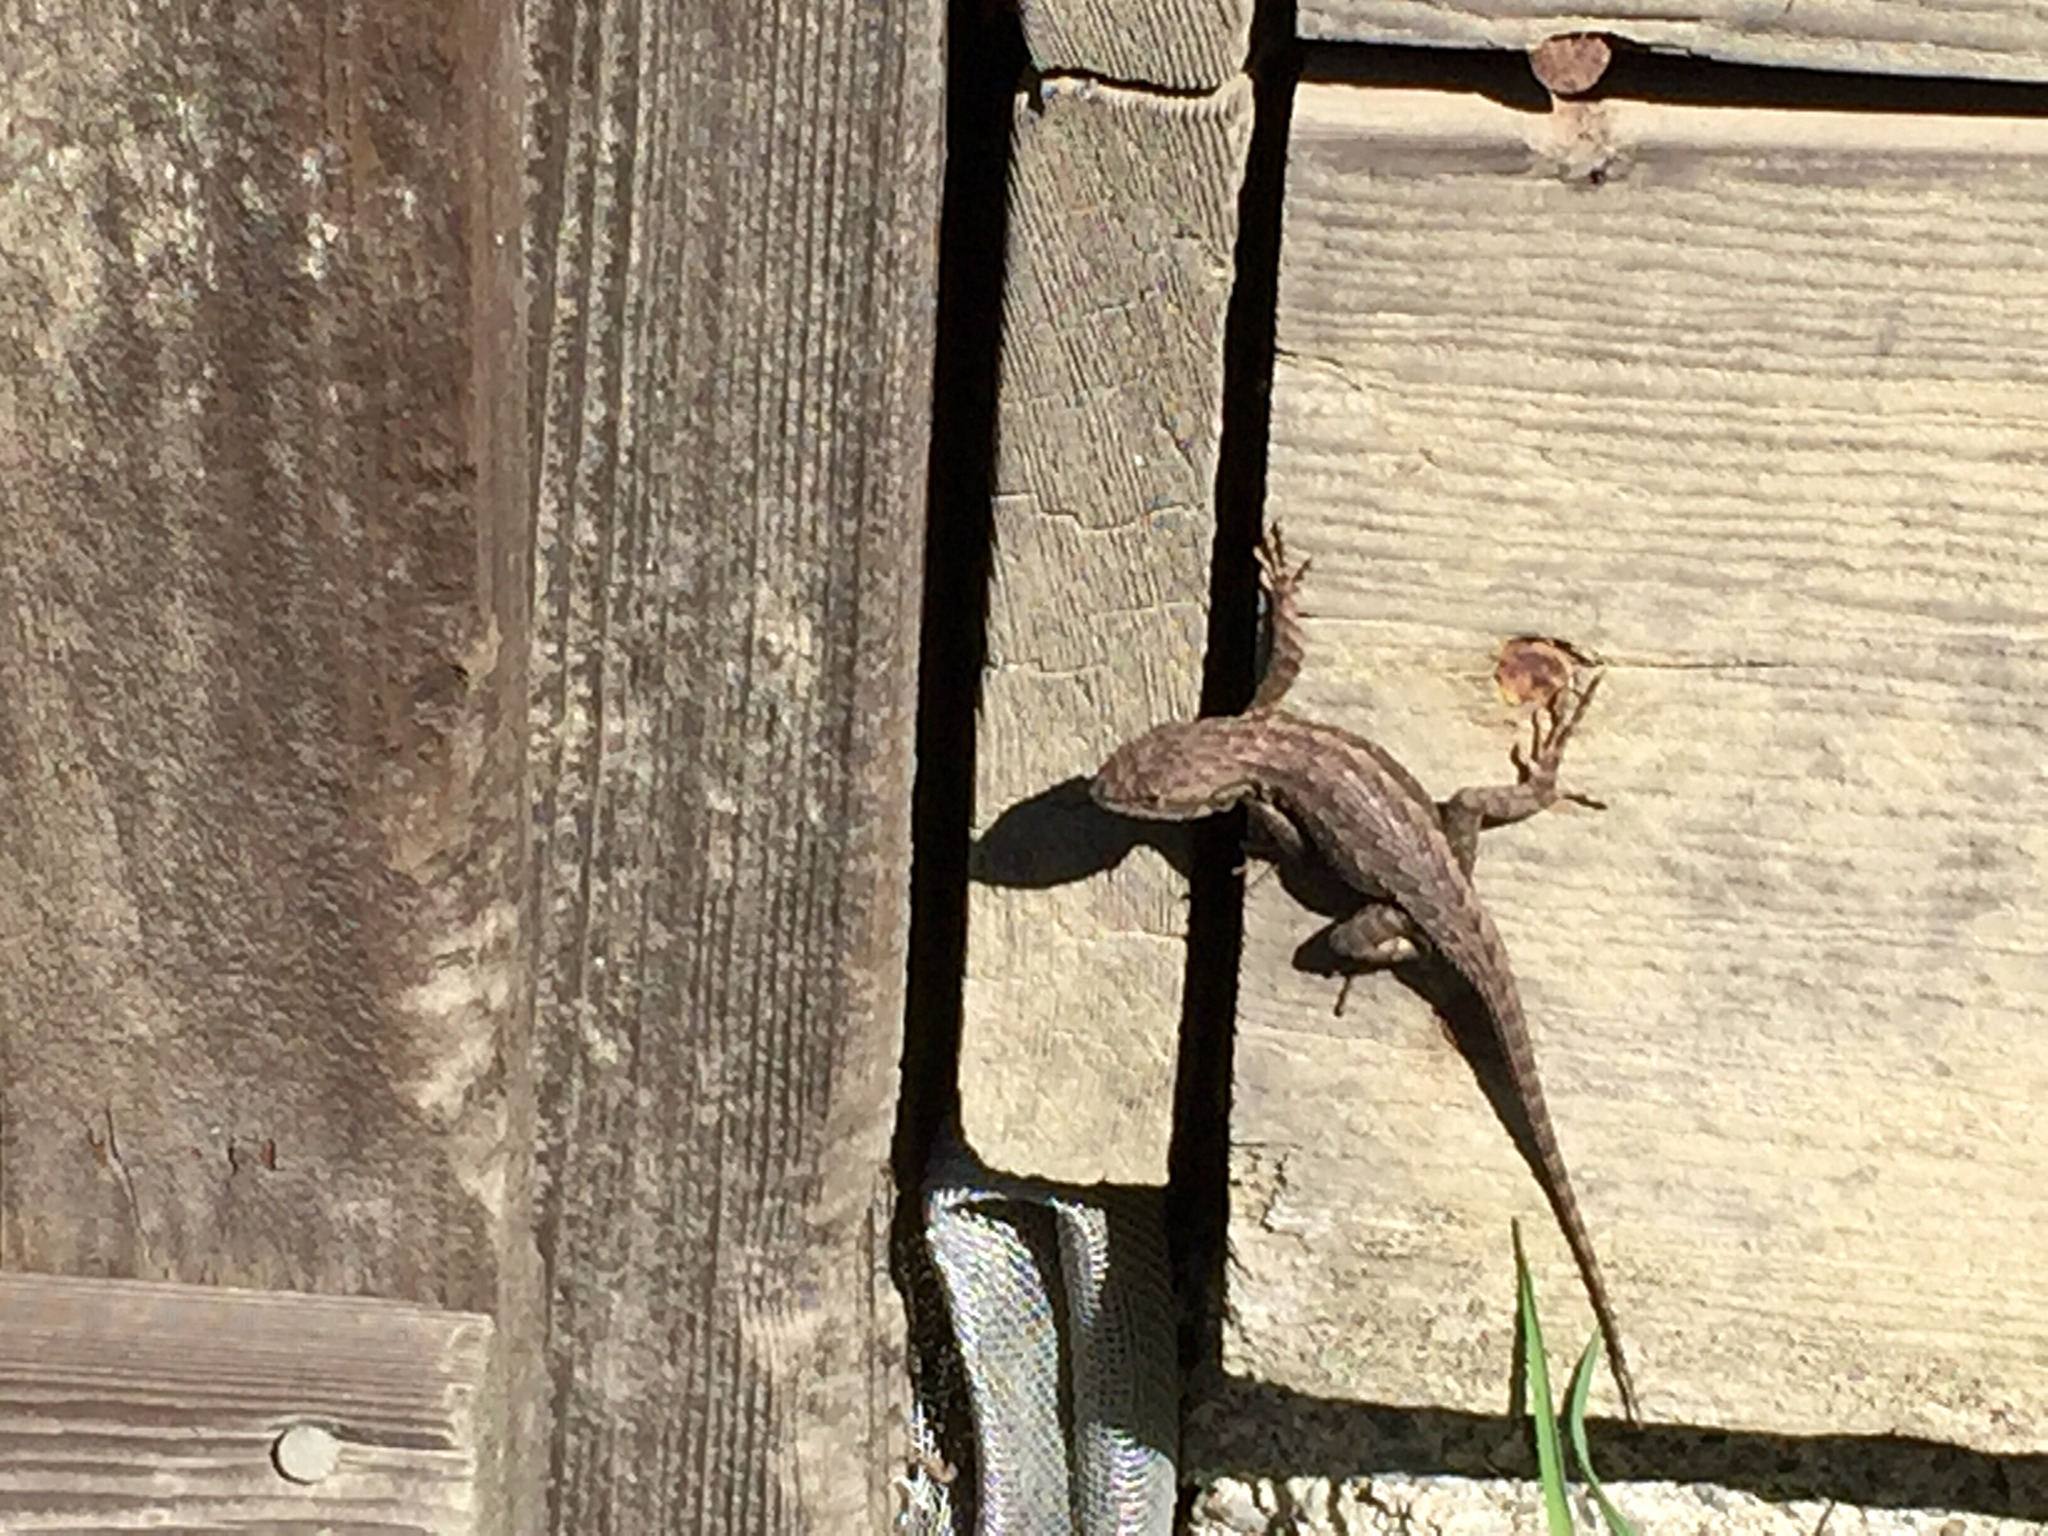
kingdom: Animalia
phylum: Chordata
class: Squamata
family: Phrynosomatidae
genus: Sceloporus
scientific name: Sceloporus occidentalis
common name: Western fence lizard
